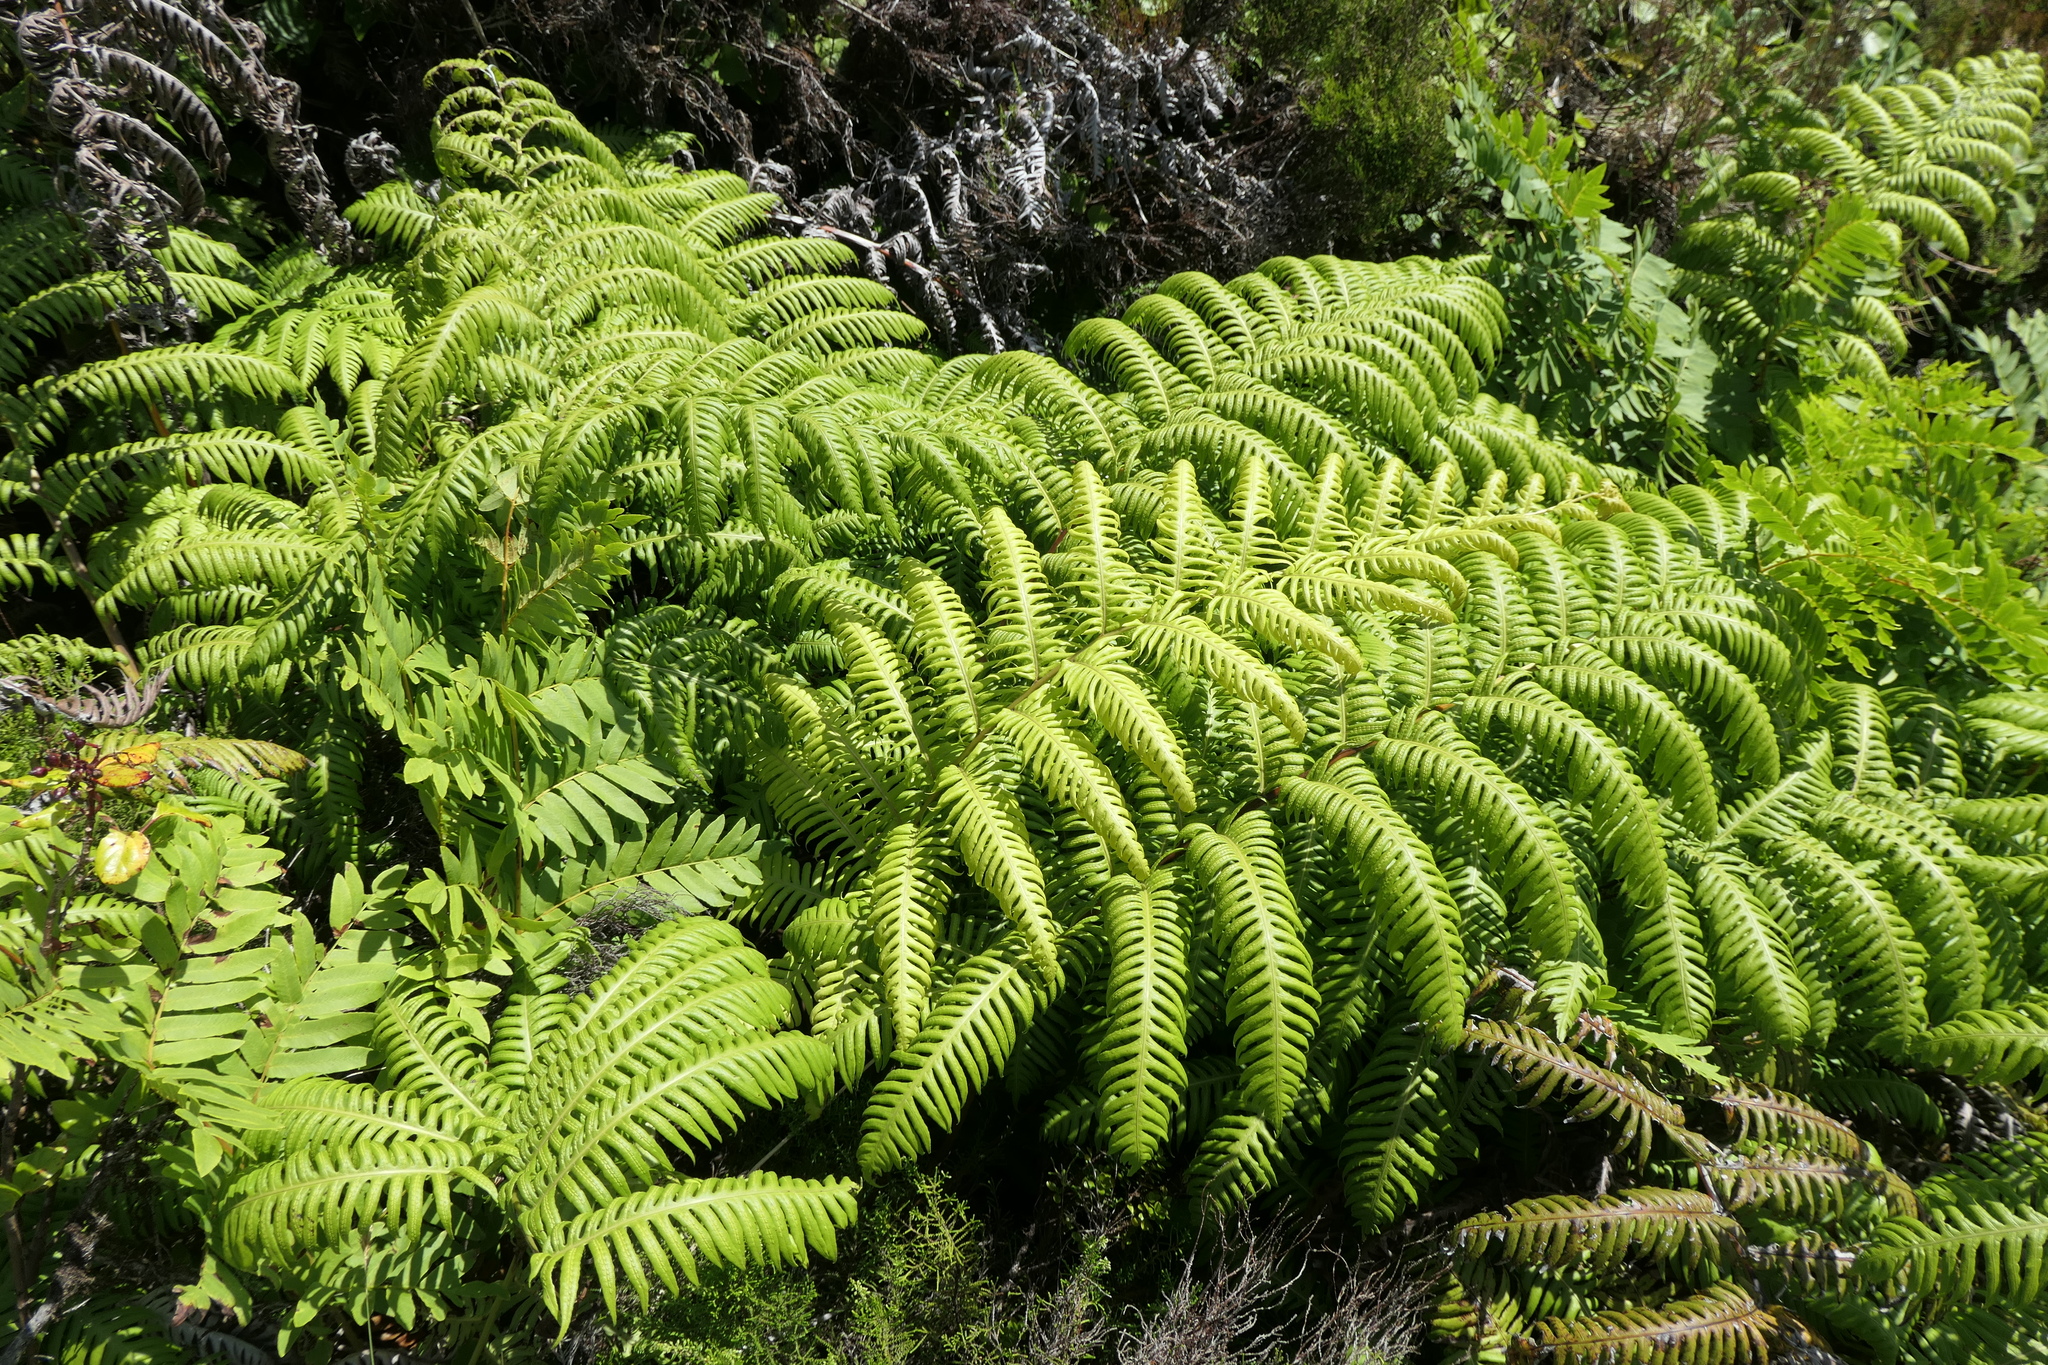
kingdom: Plantae
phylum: Tracheophyta
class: Polypodiopsida
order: Polypodiales
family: Blechnaceae
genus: Woodwardia
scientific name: Woodwardia radicans
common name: Rooting chainfern
